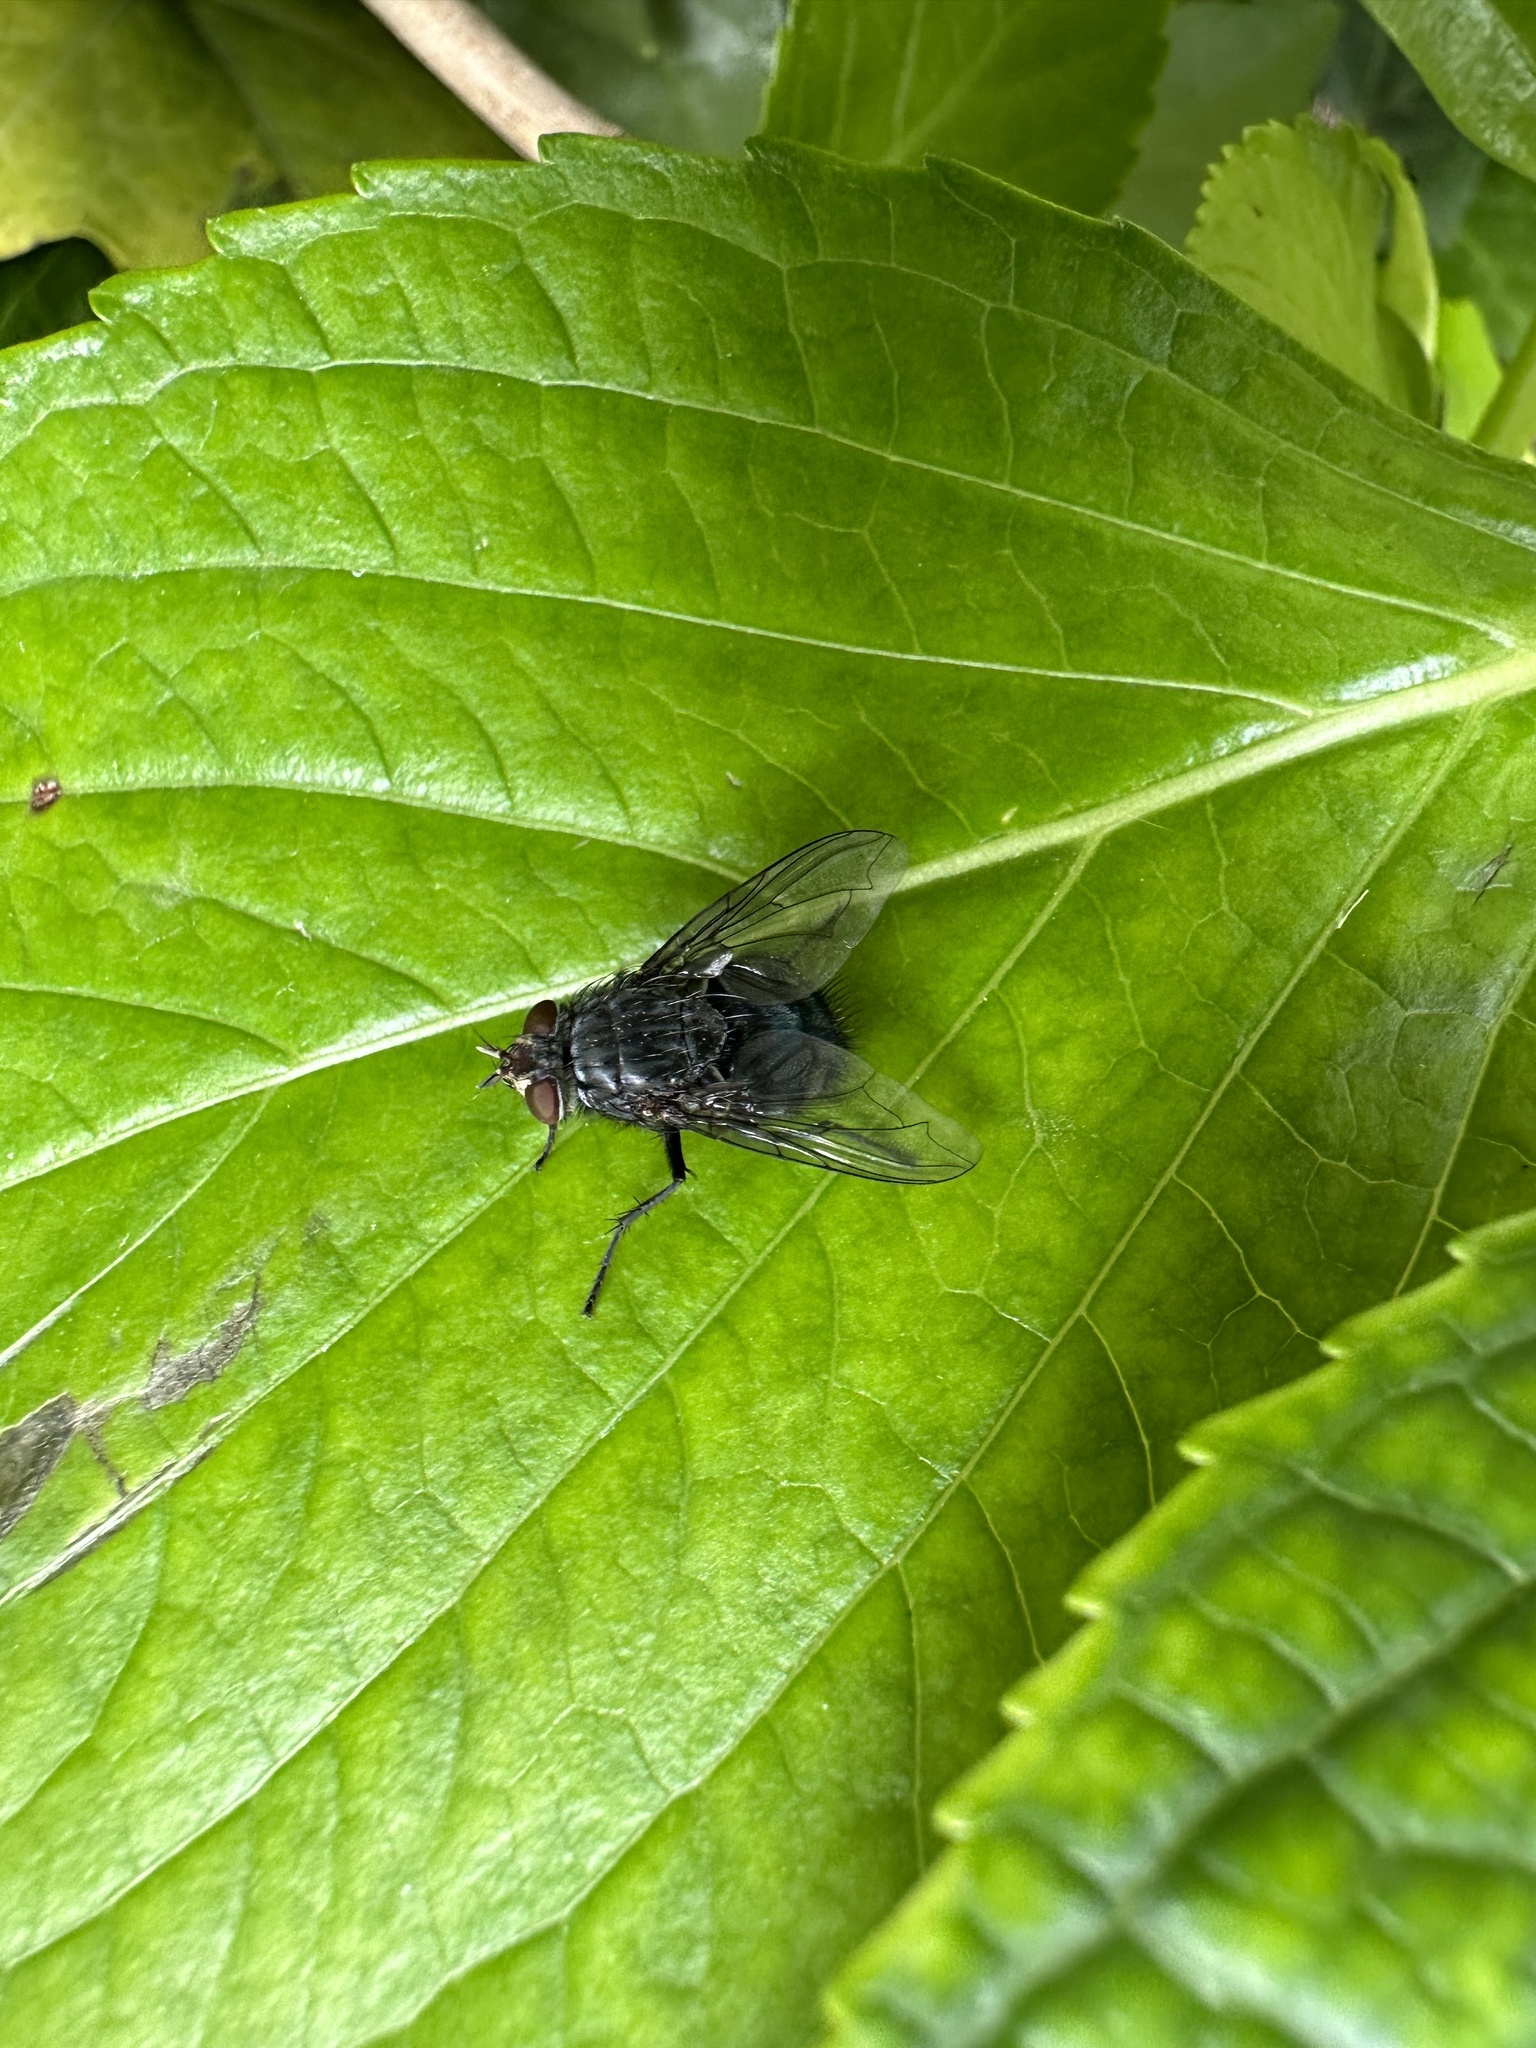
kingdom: Animalia
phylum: Arthropoda
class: Insecta
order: Diptera
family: Calliphoridae
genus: Calliphora
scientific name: Calliphora vicina
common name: Common blow flie
